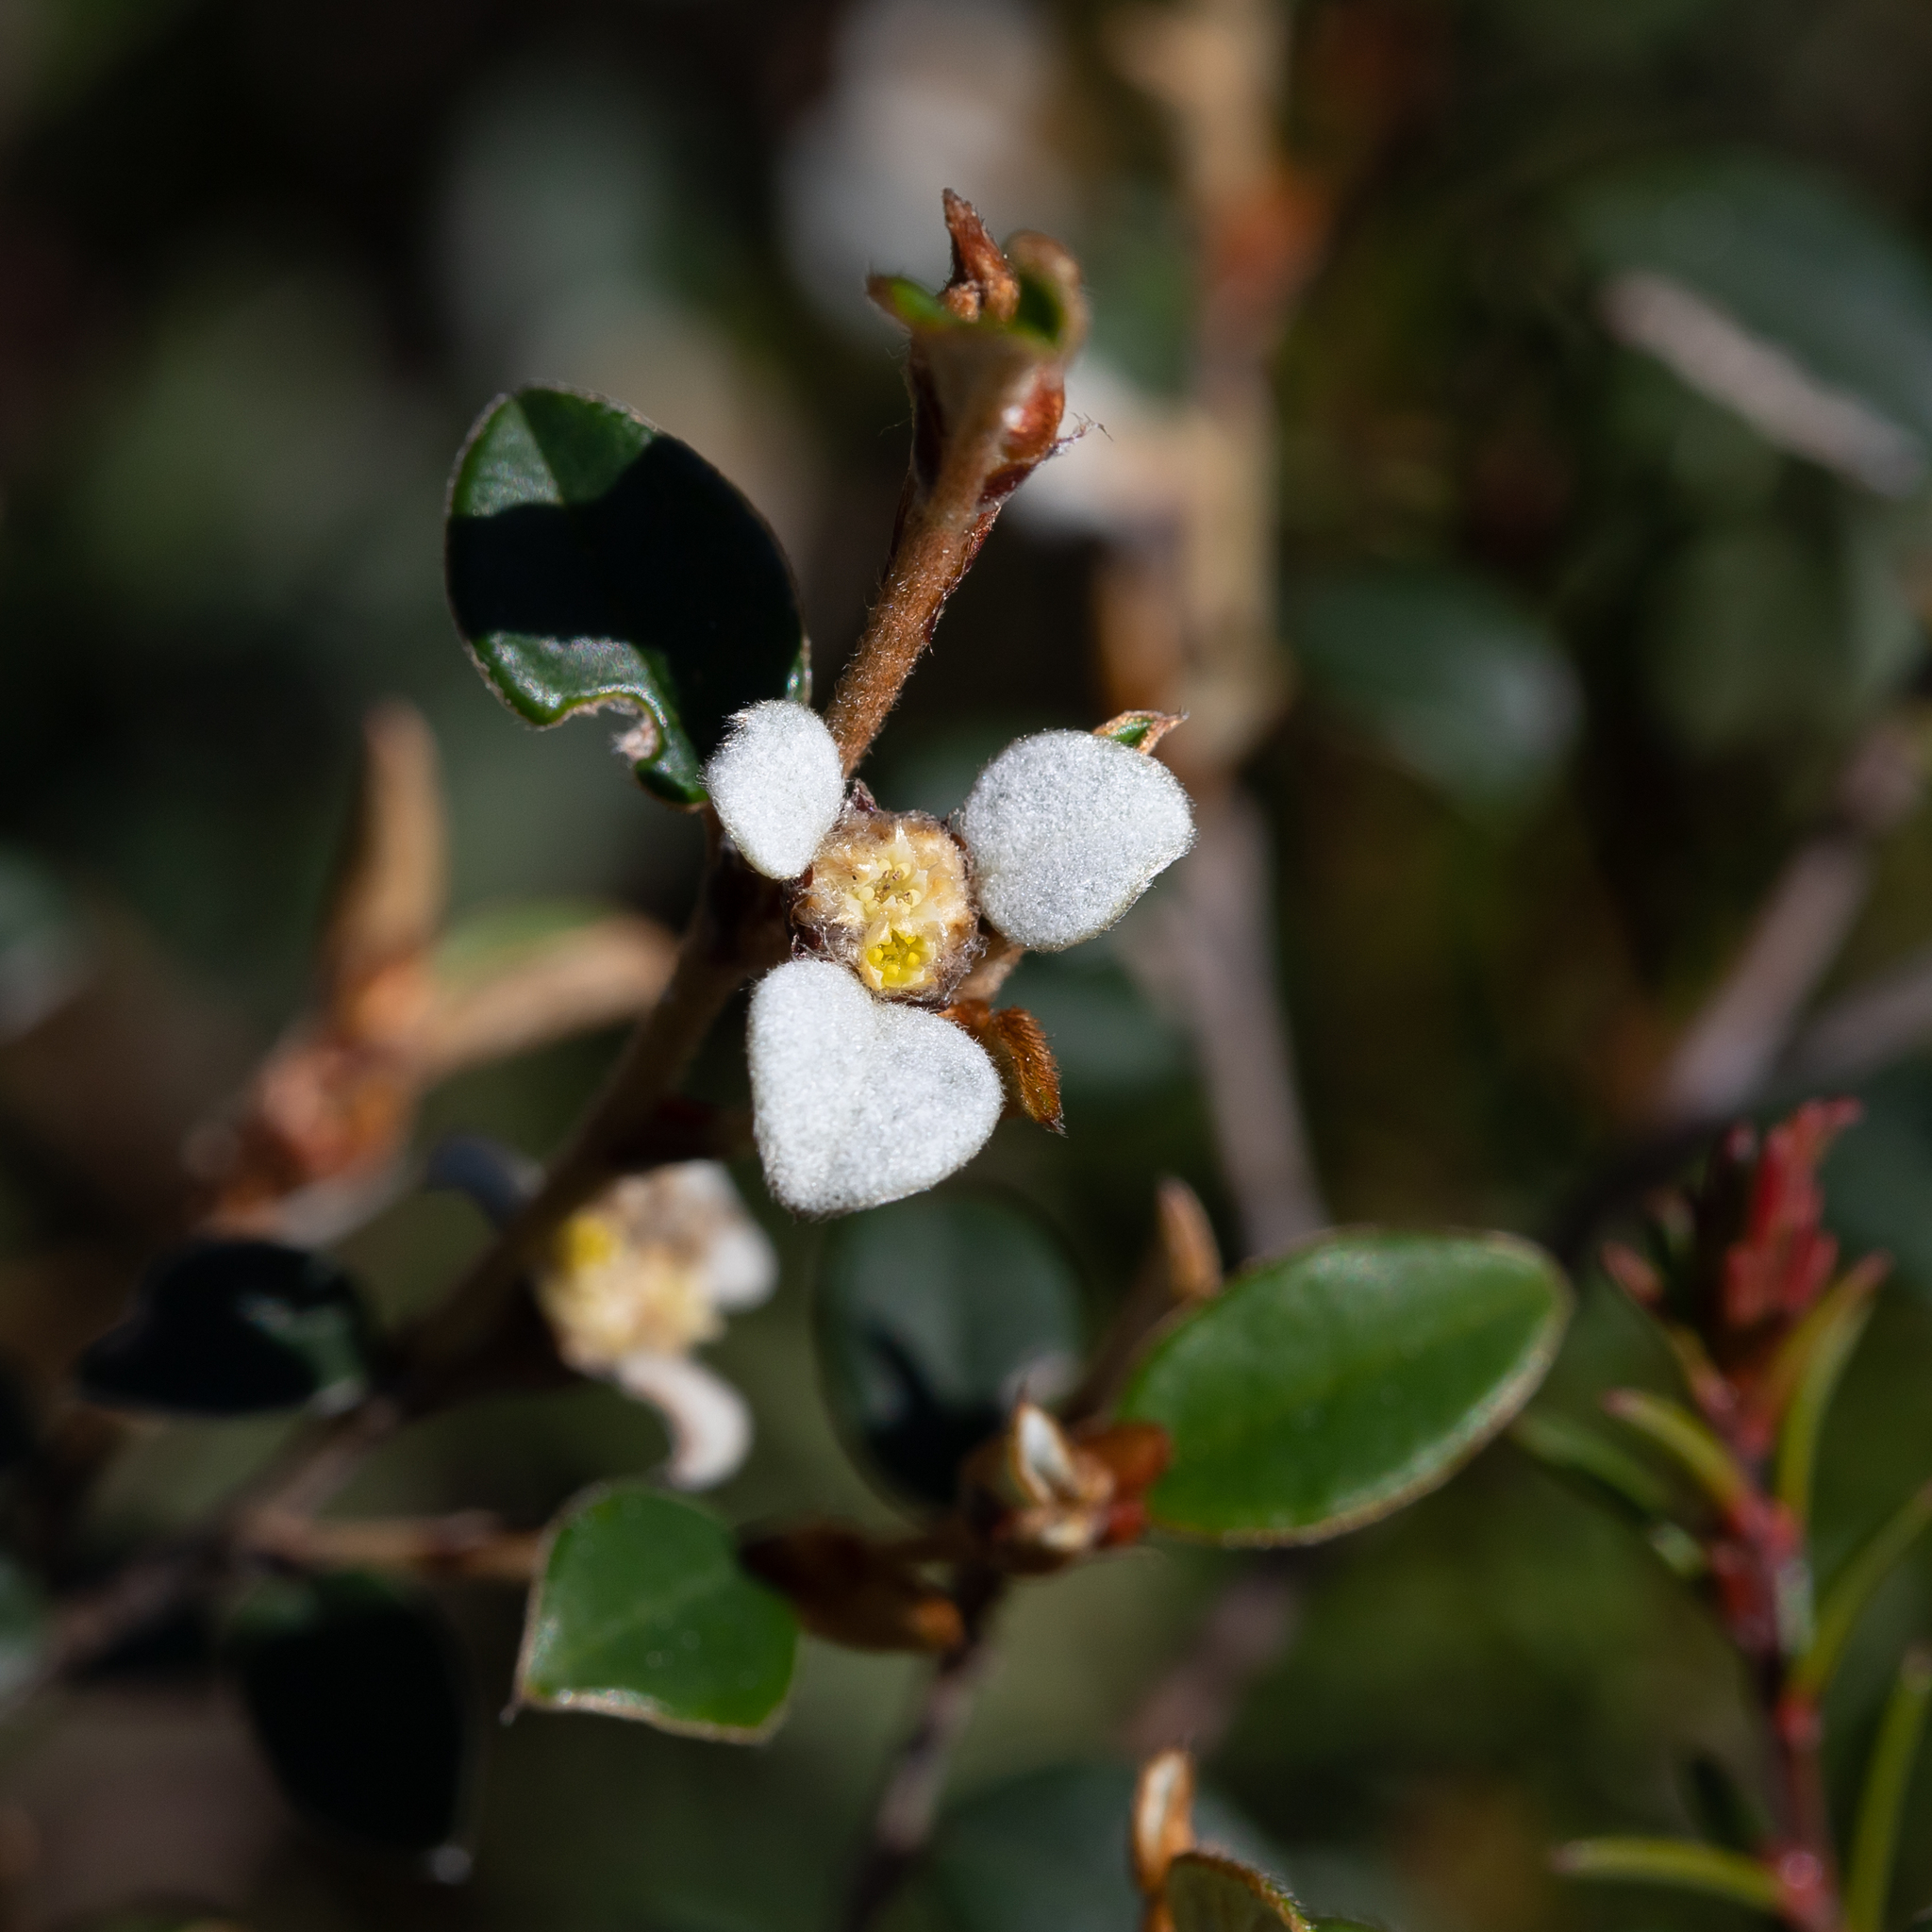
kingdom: Plantae
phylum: Tracheophyta
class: Magnoliopsida
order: Rosales
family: Rhamnaceae
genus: Spyridium
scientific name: Spyridium thymifolium
